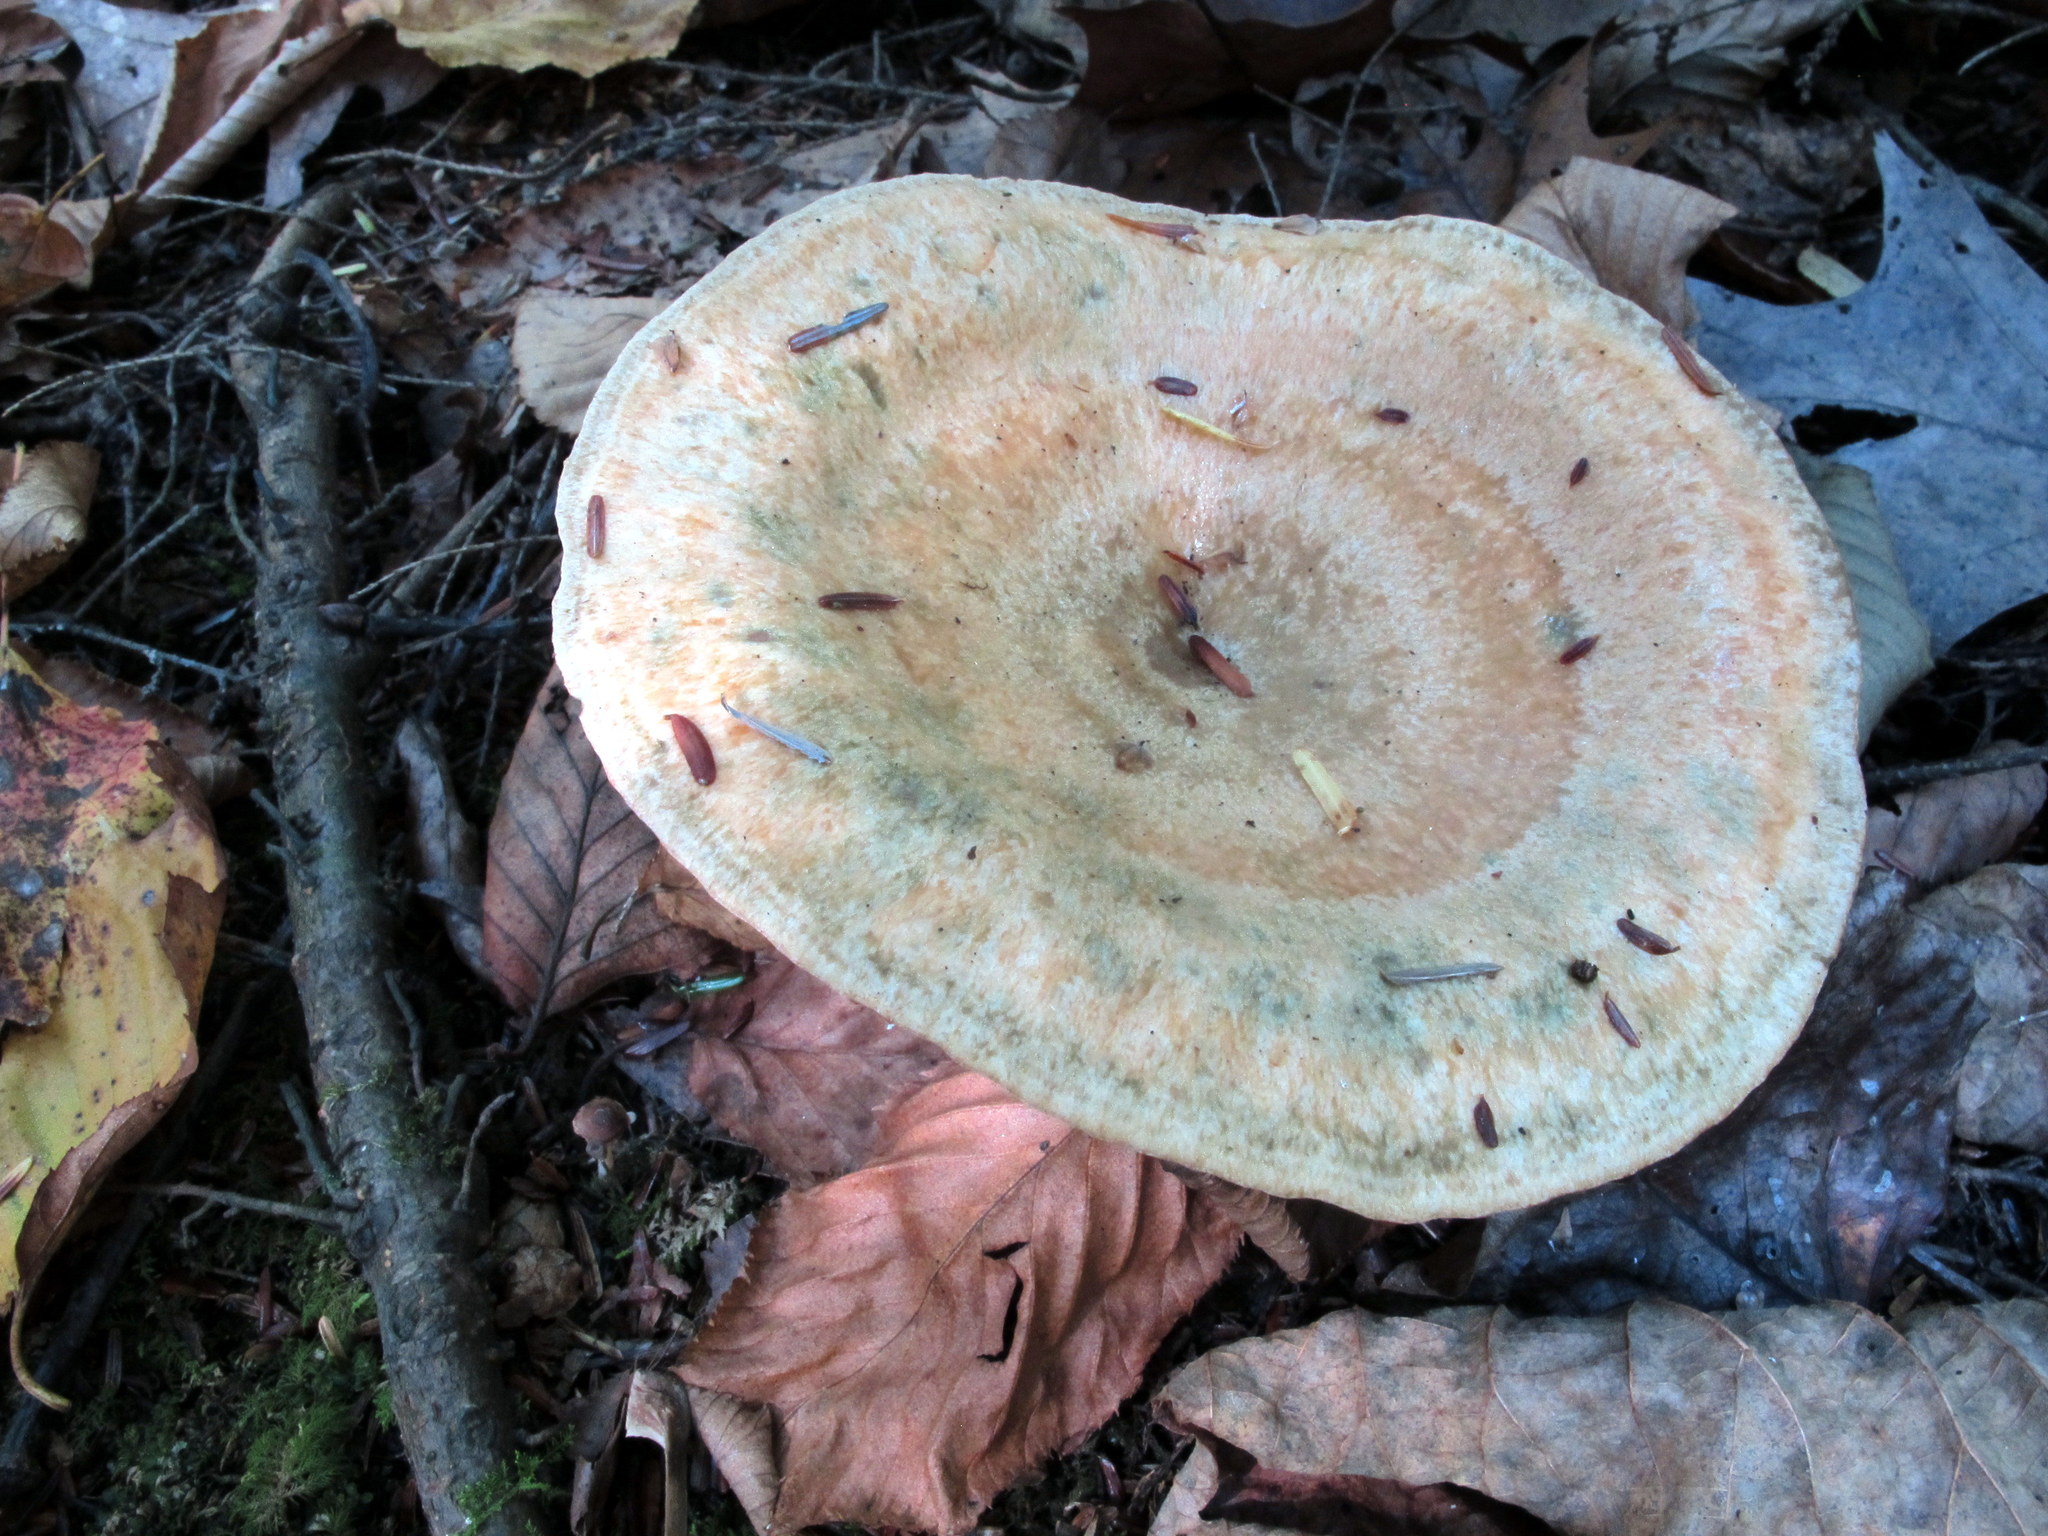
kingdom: Fungi
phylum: Basidiomycota
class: Agaricomycetes
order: Russulales
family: Russulaceae
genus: Lactarius
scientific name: Lactarius deterrimus
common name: False saffron milkcap
